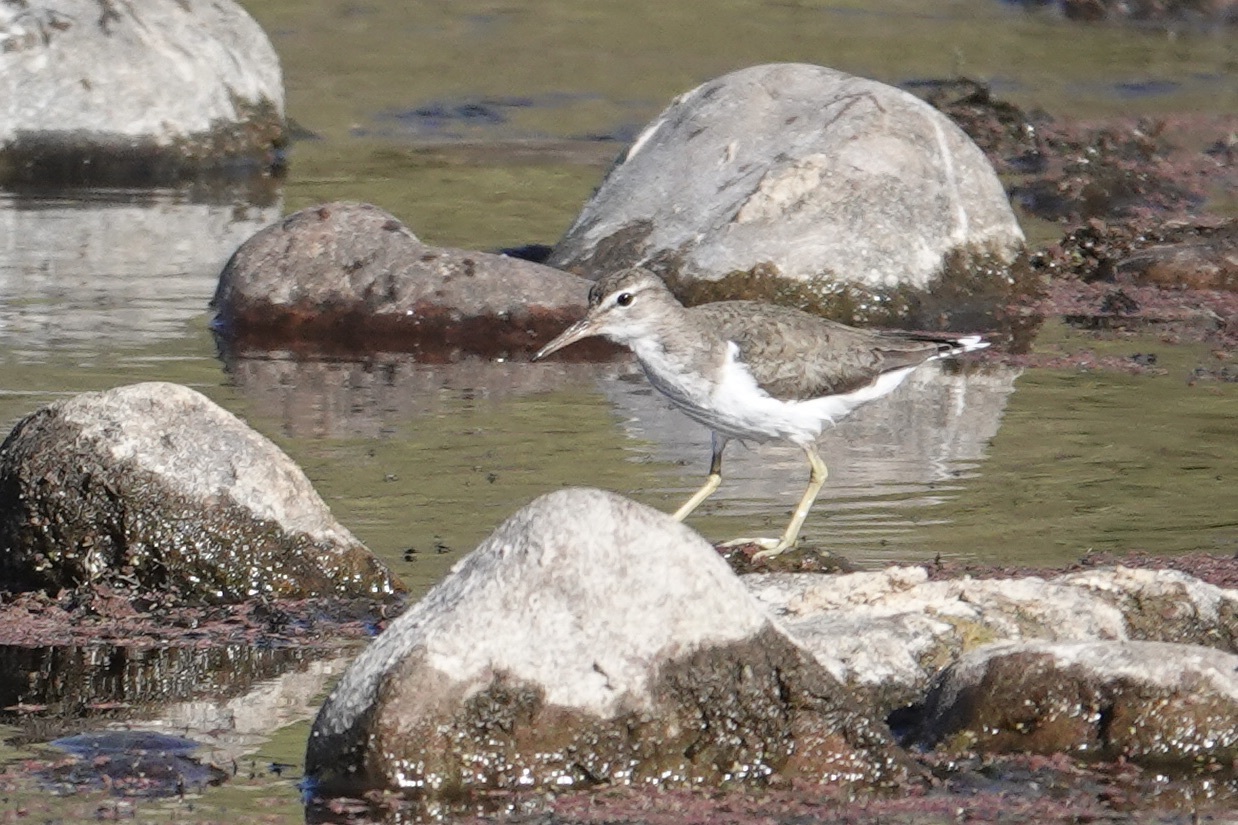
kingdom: Animalia
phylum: Chordata
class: Aves
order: Charadriiformes
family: Scolopacidae
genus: Actitis
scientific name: Actitis macularius
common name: Spotted sandpiper
